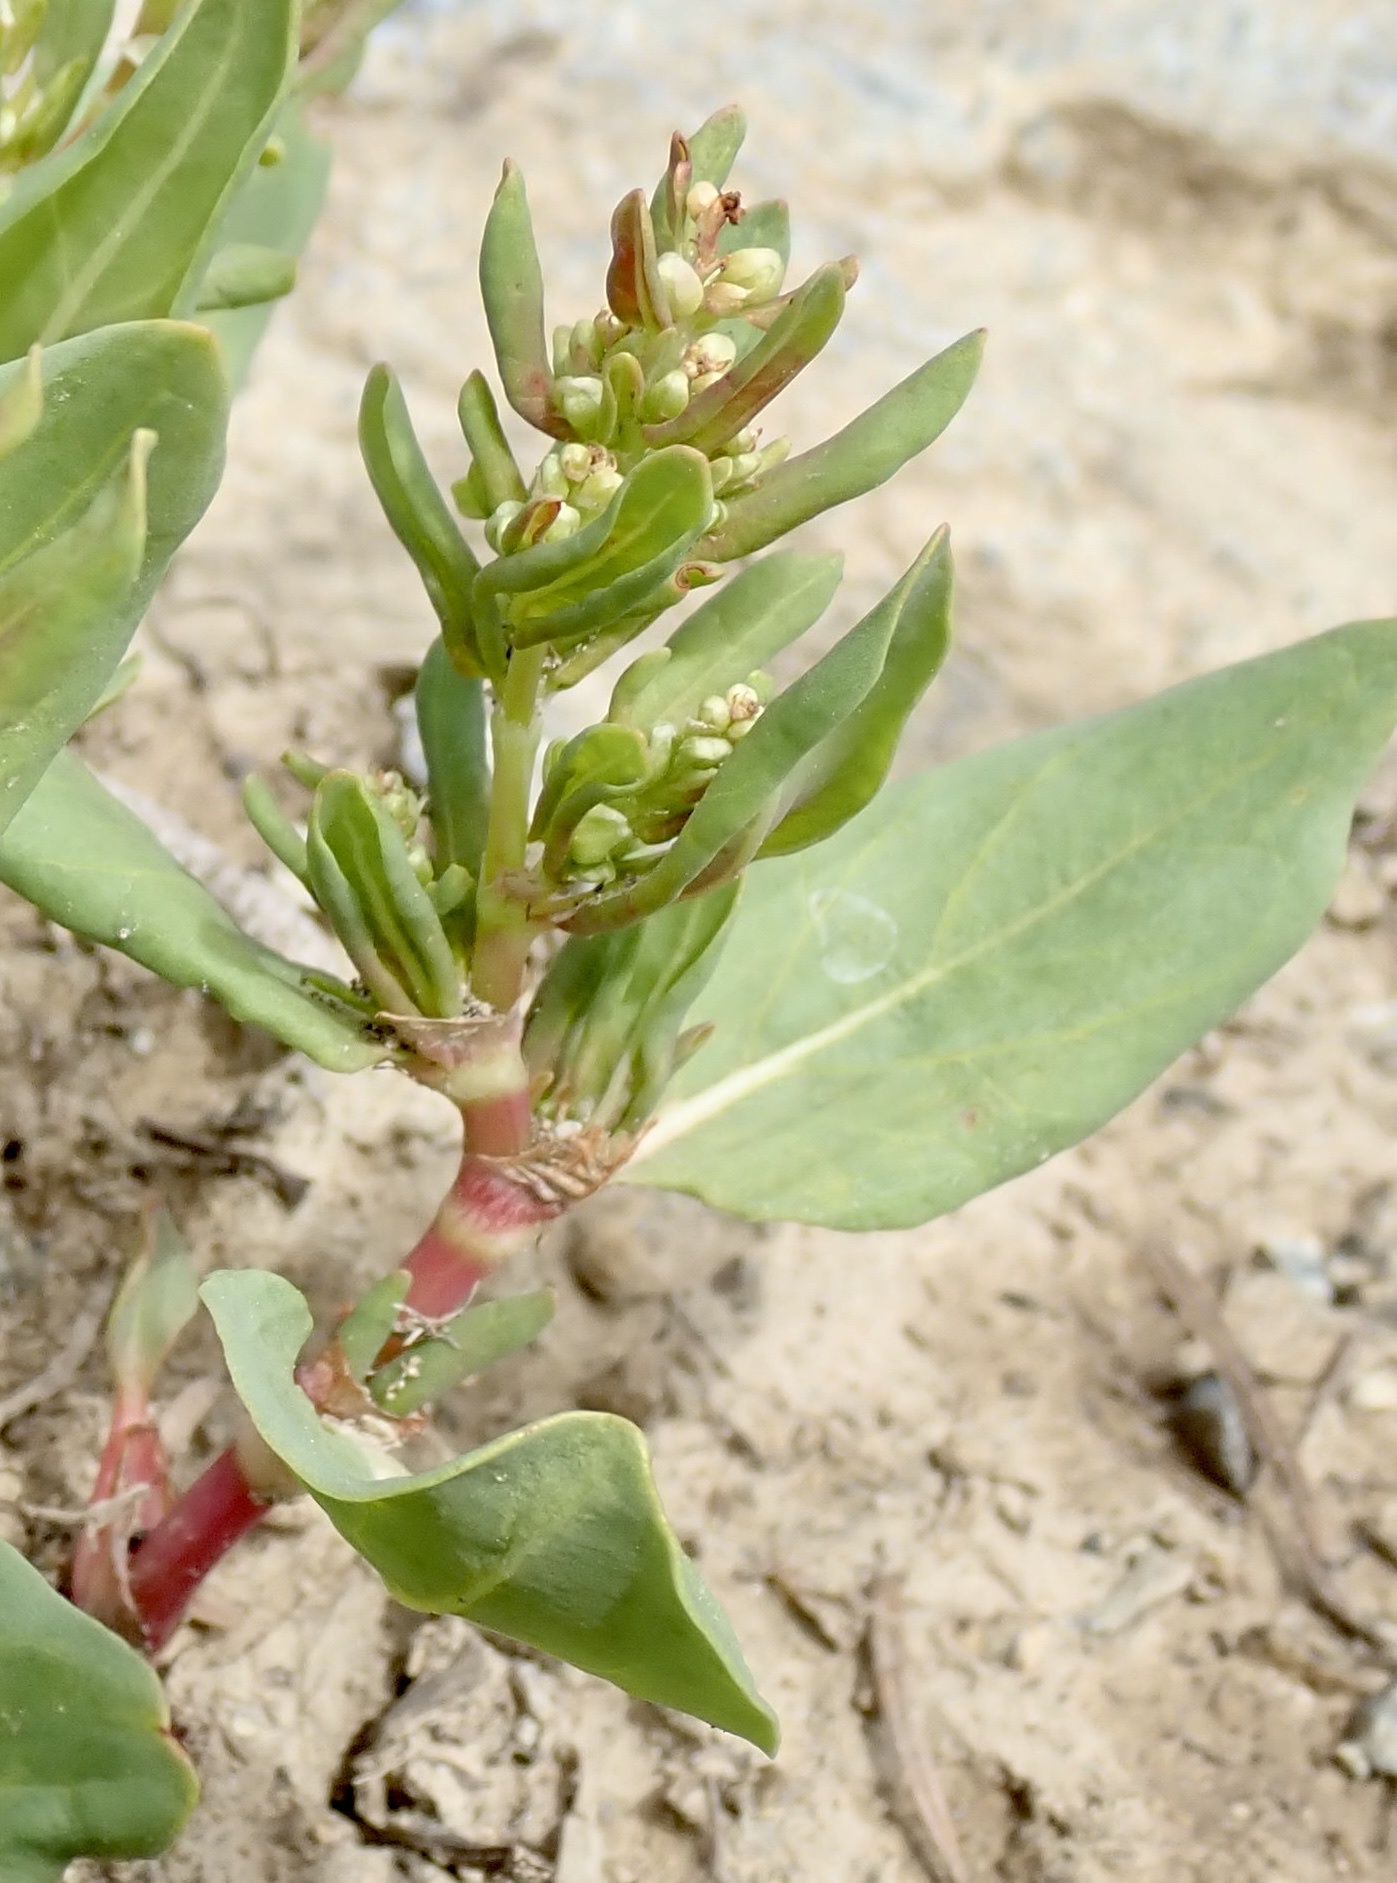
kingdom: Plantae
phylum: Tracheophyta
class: Magnoliopsida
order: Caryophyllales
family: Polygonaceae
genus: Koenigia
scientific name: Koenigia davisiae
